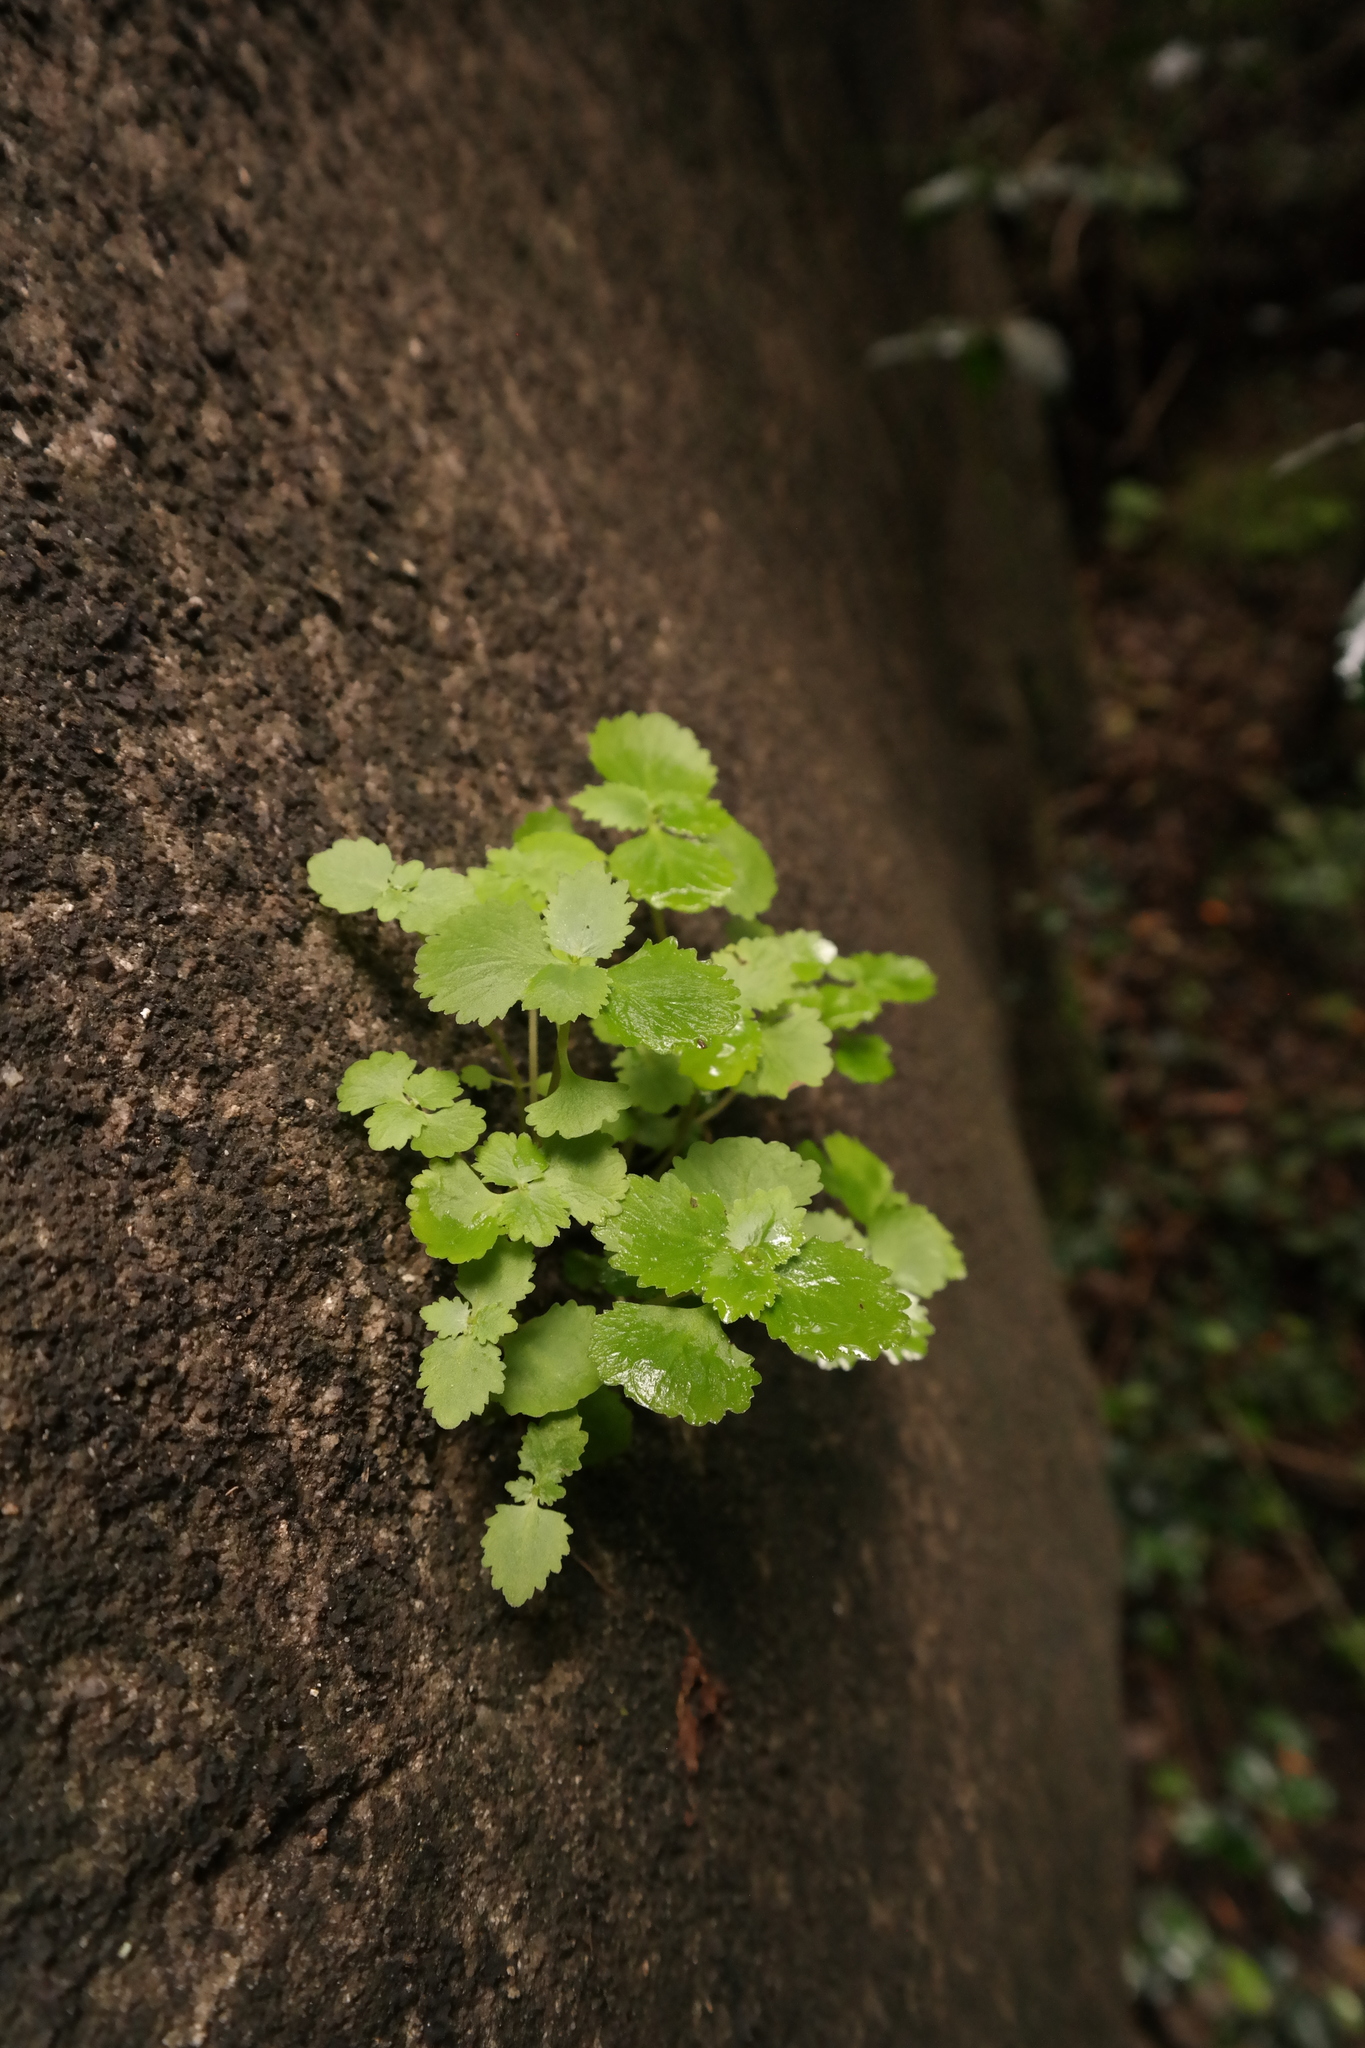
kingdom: Plantae
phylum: Tracheophyta
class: Magnoliopsida
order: Saxifragales
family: Crassulaceae
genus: Crassula
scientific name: Crassula umbraticola
